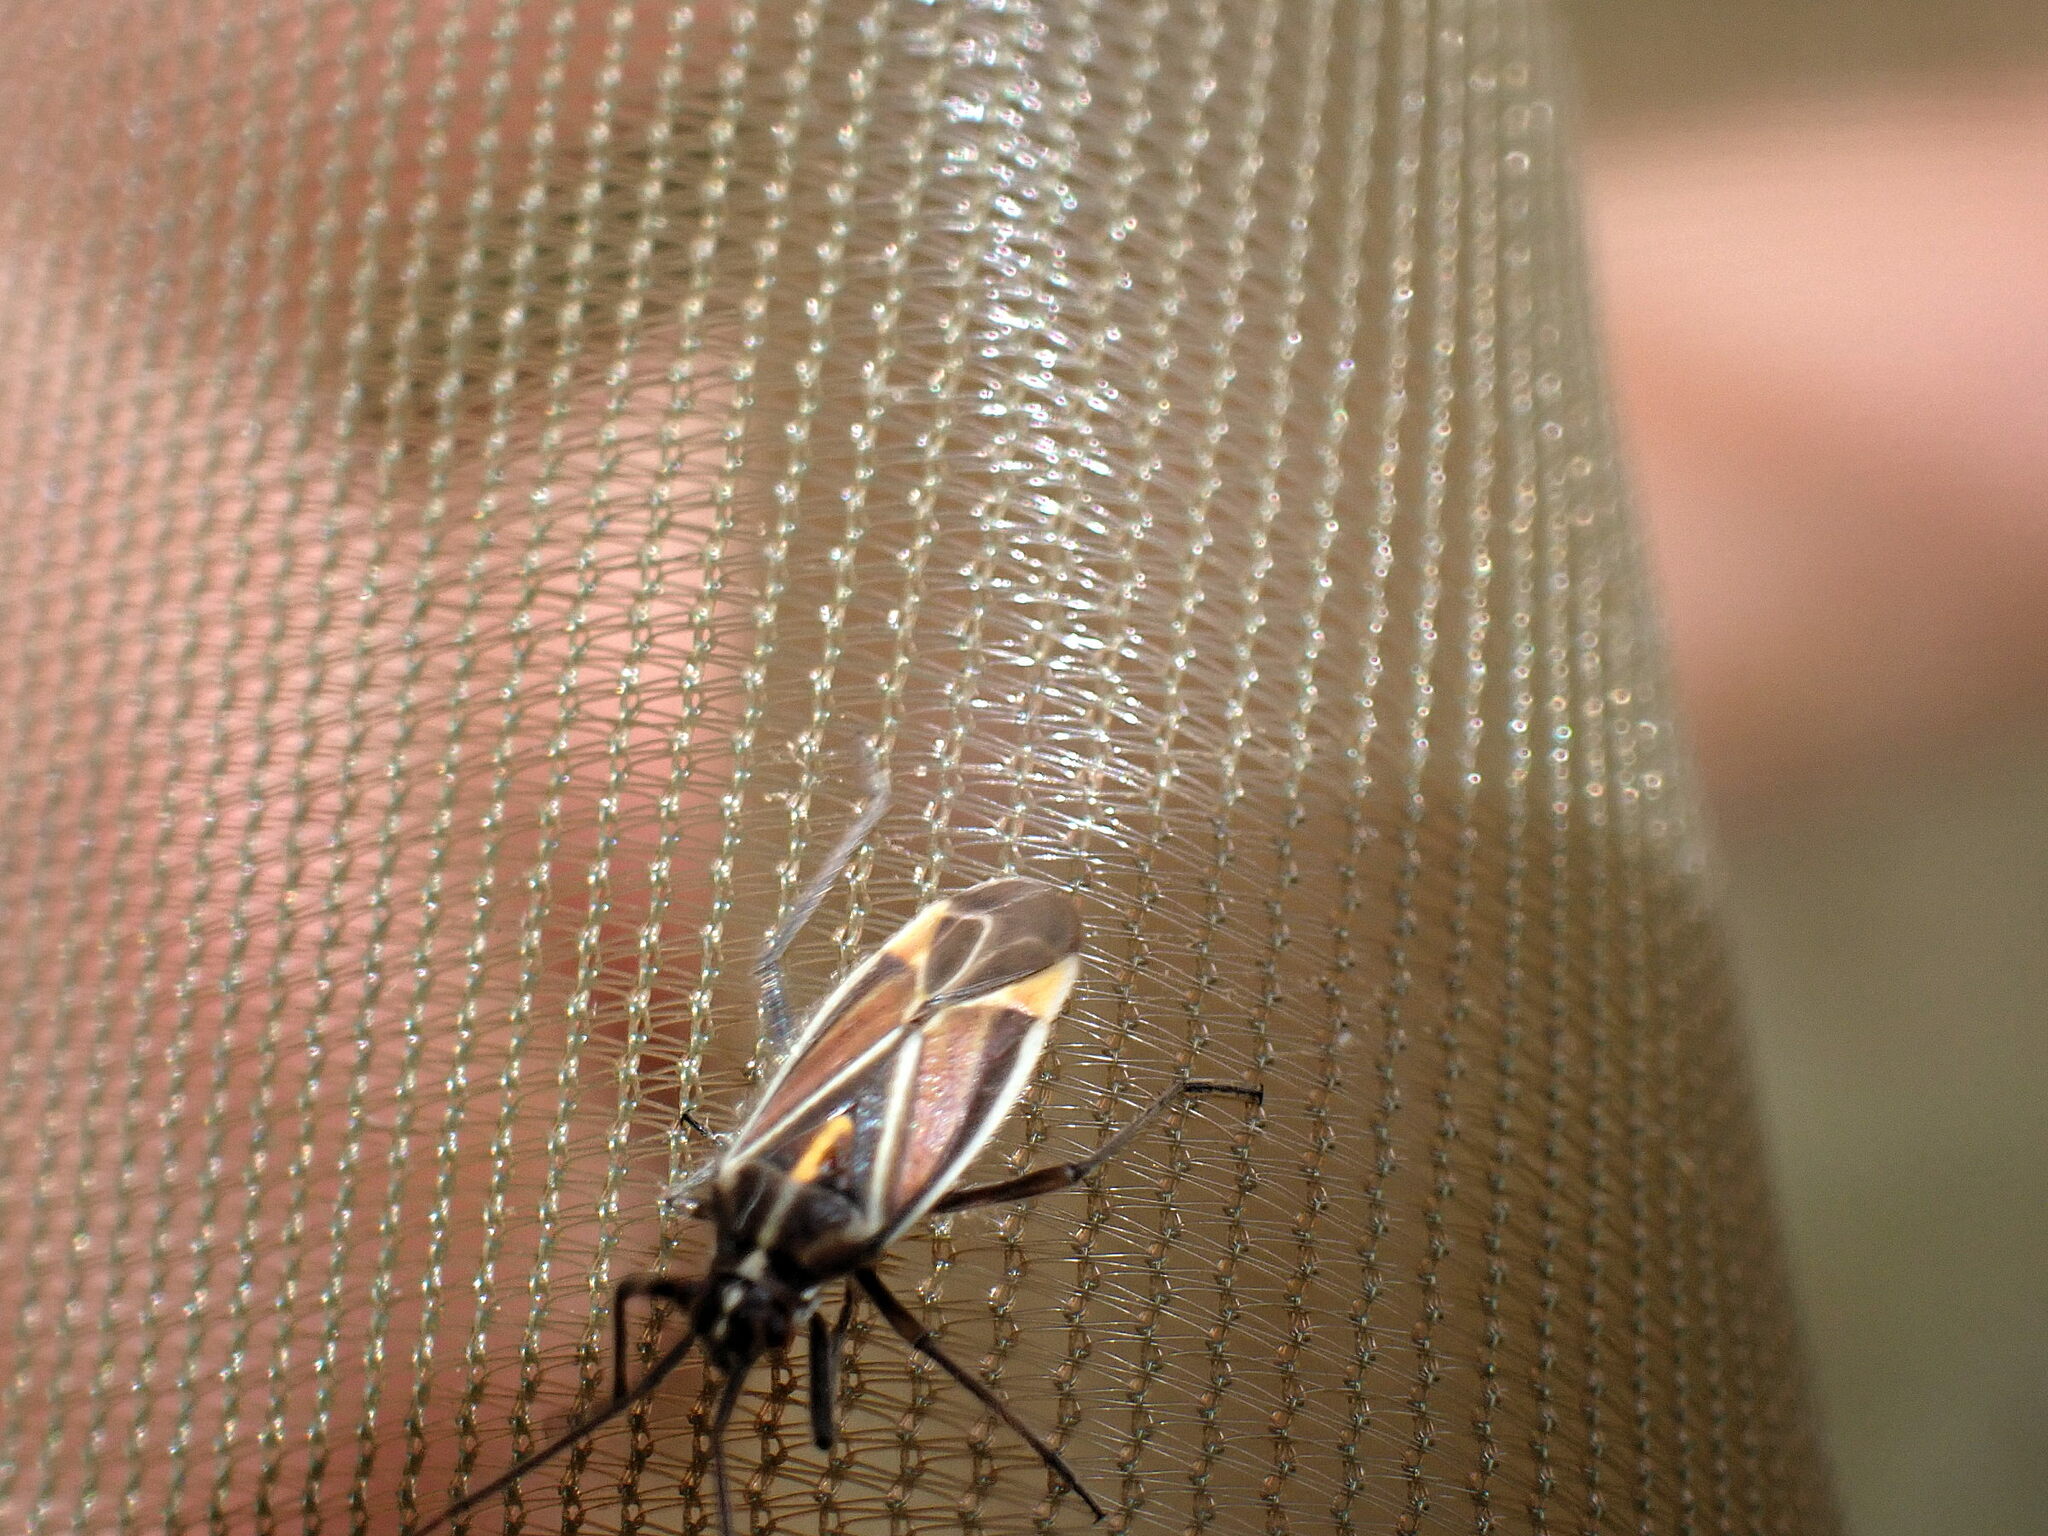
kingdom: Animalia
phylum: Arthropoda
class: Insecta
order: Hemiptera
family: Miridae
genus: Horistus
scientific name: Horistus orientalis
